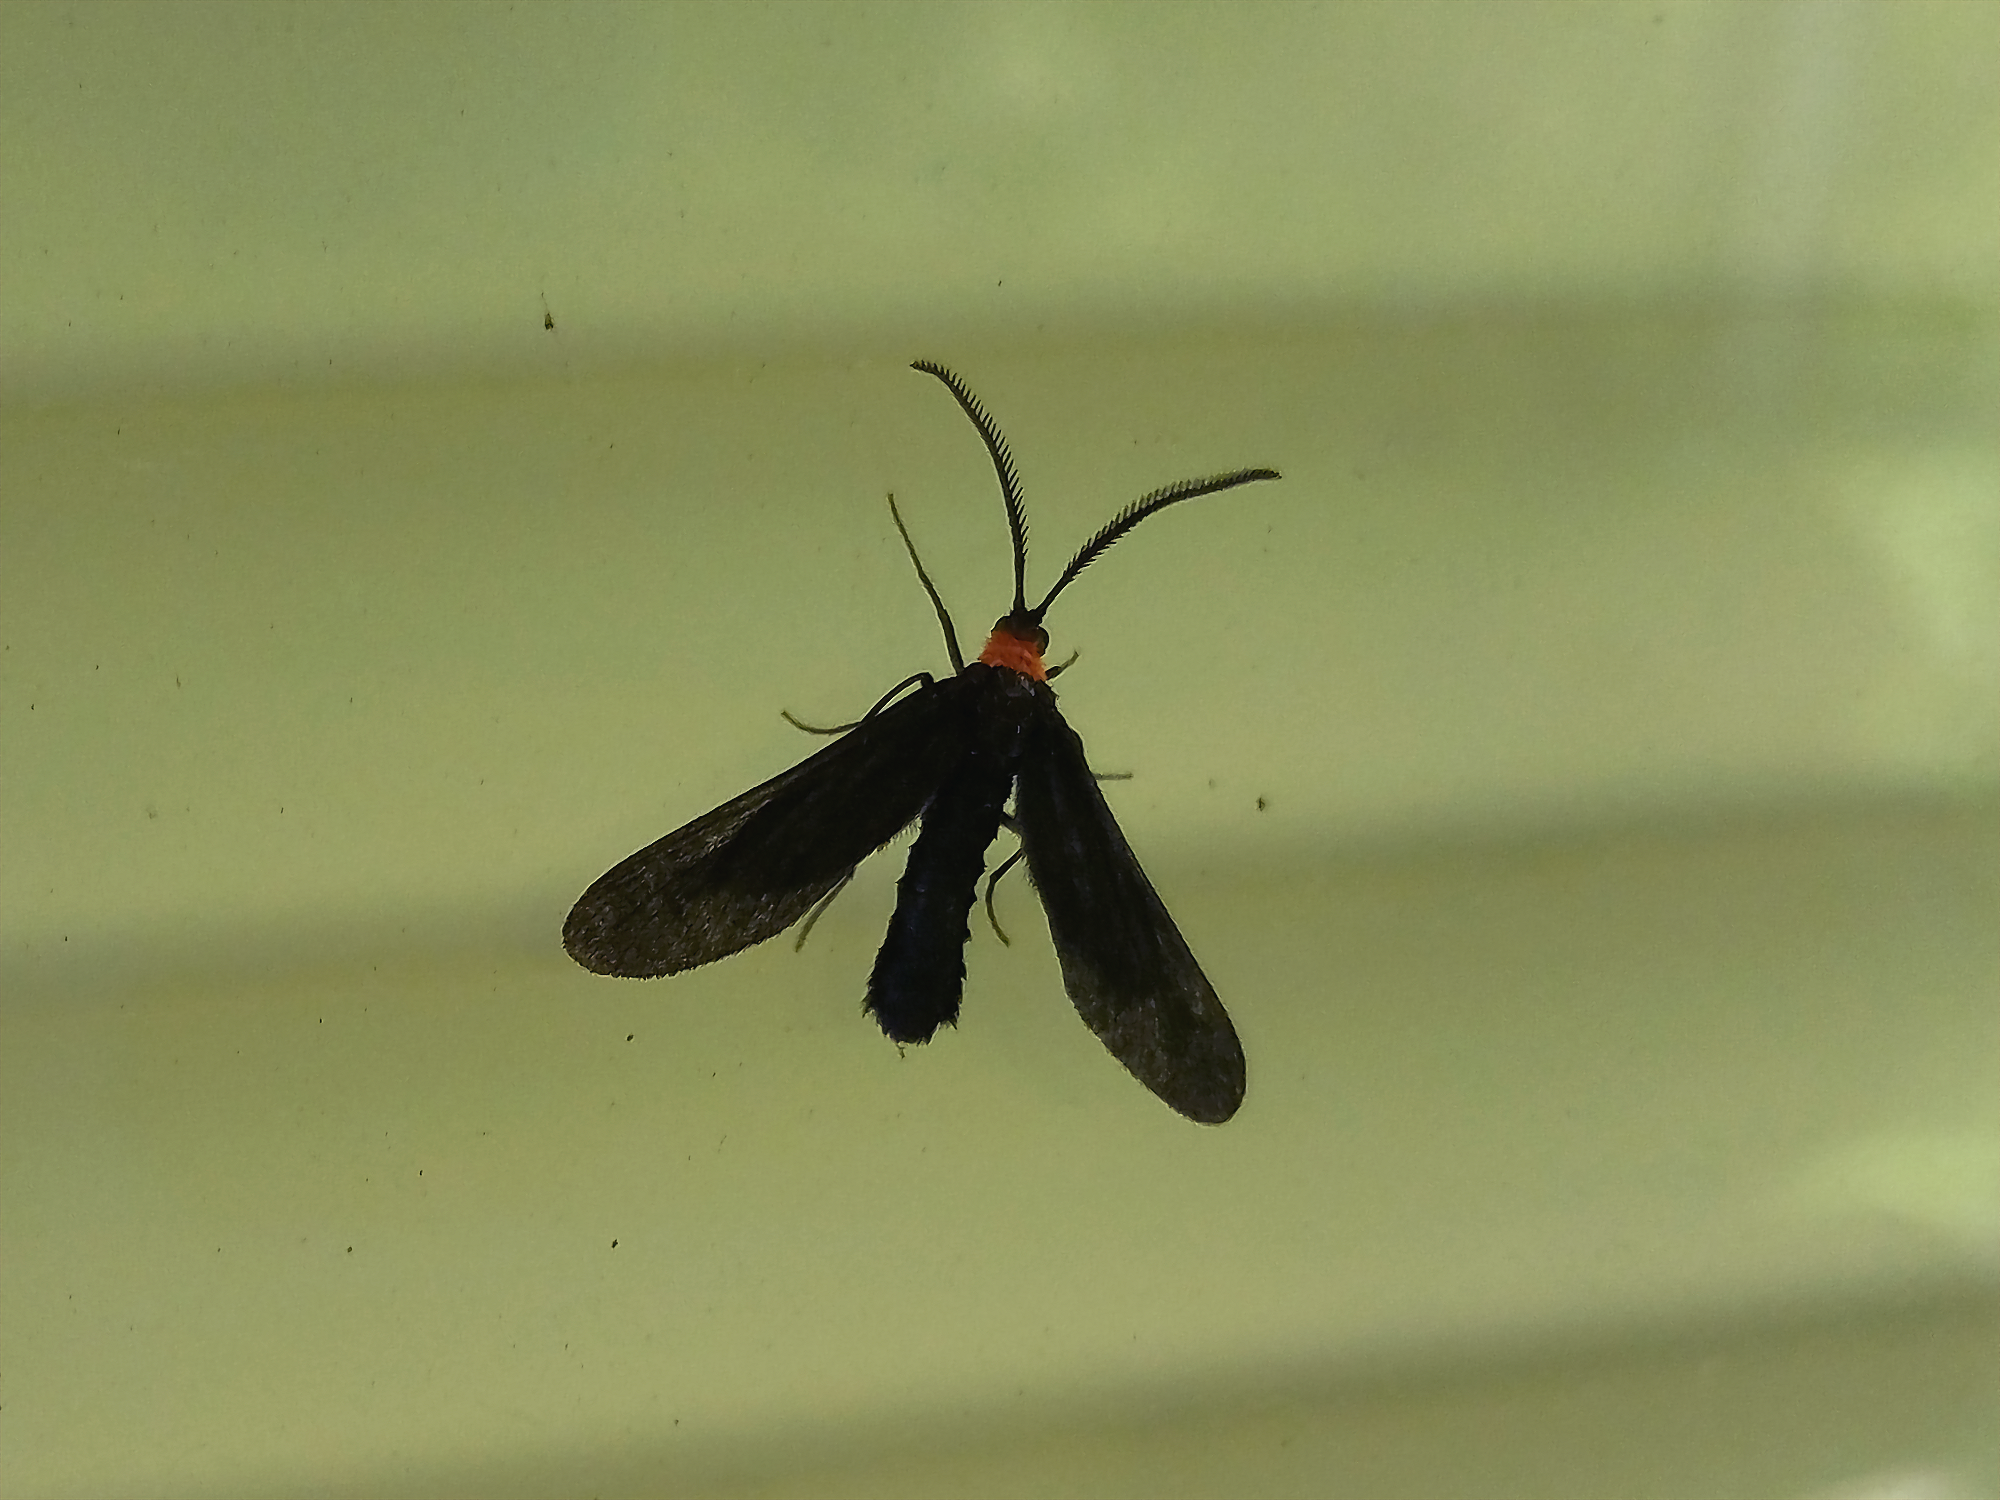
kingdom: Animalia
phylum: Arthropoda
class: Insecta
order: Lepidoptera
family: Zygaenidae
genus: Harrisina
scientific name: Harrisina americana
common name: Grapeleaf skeletonizer moth
